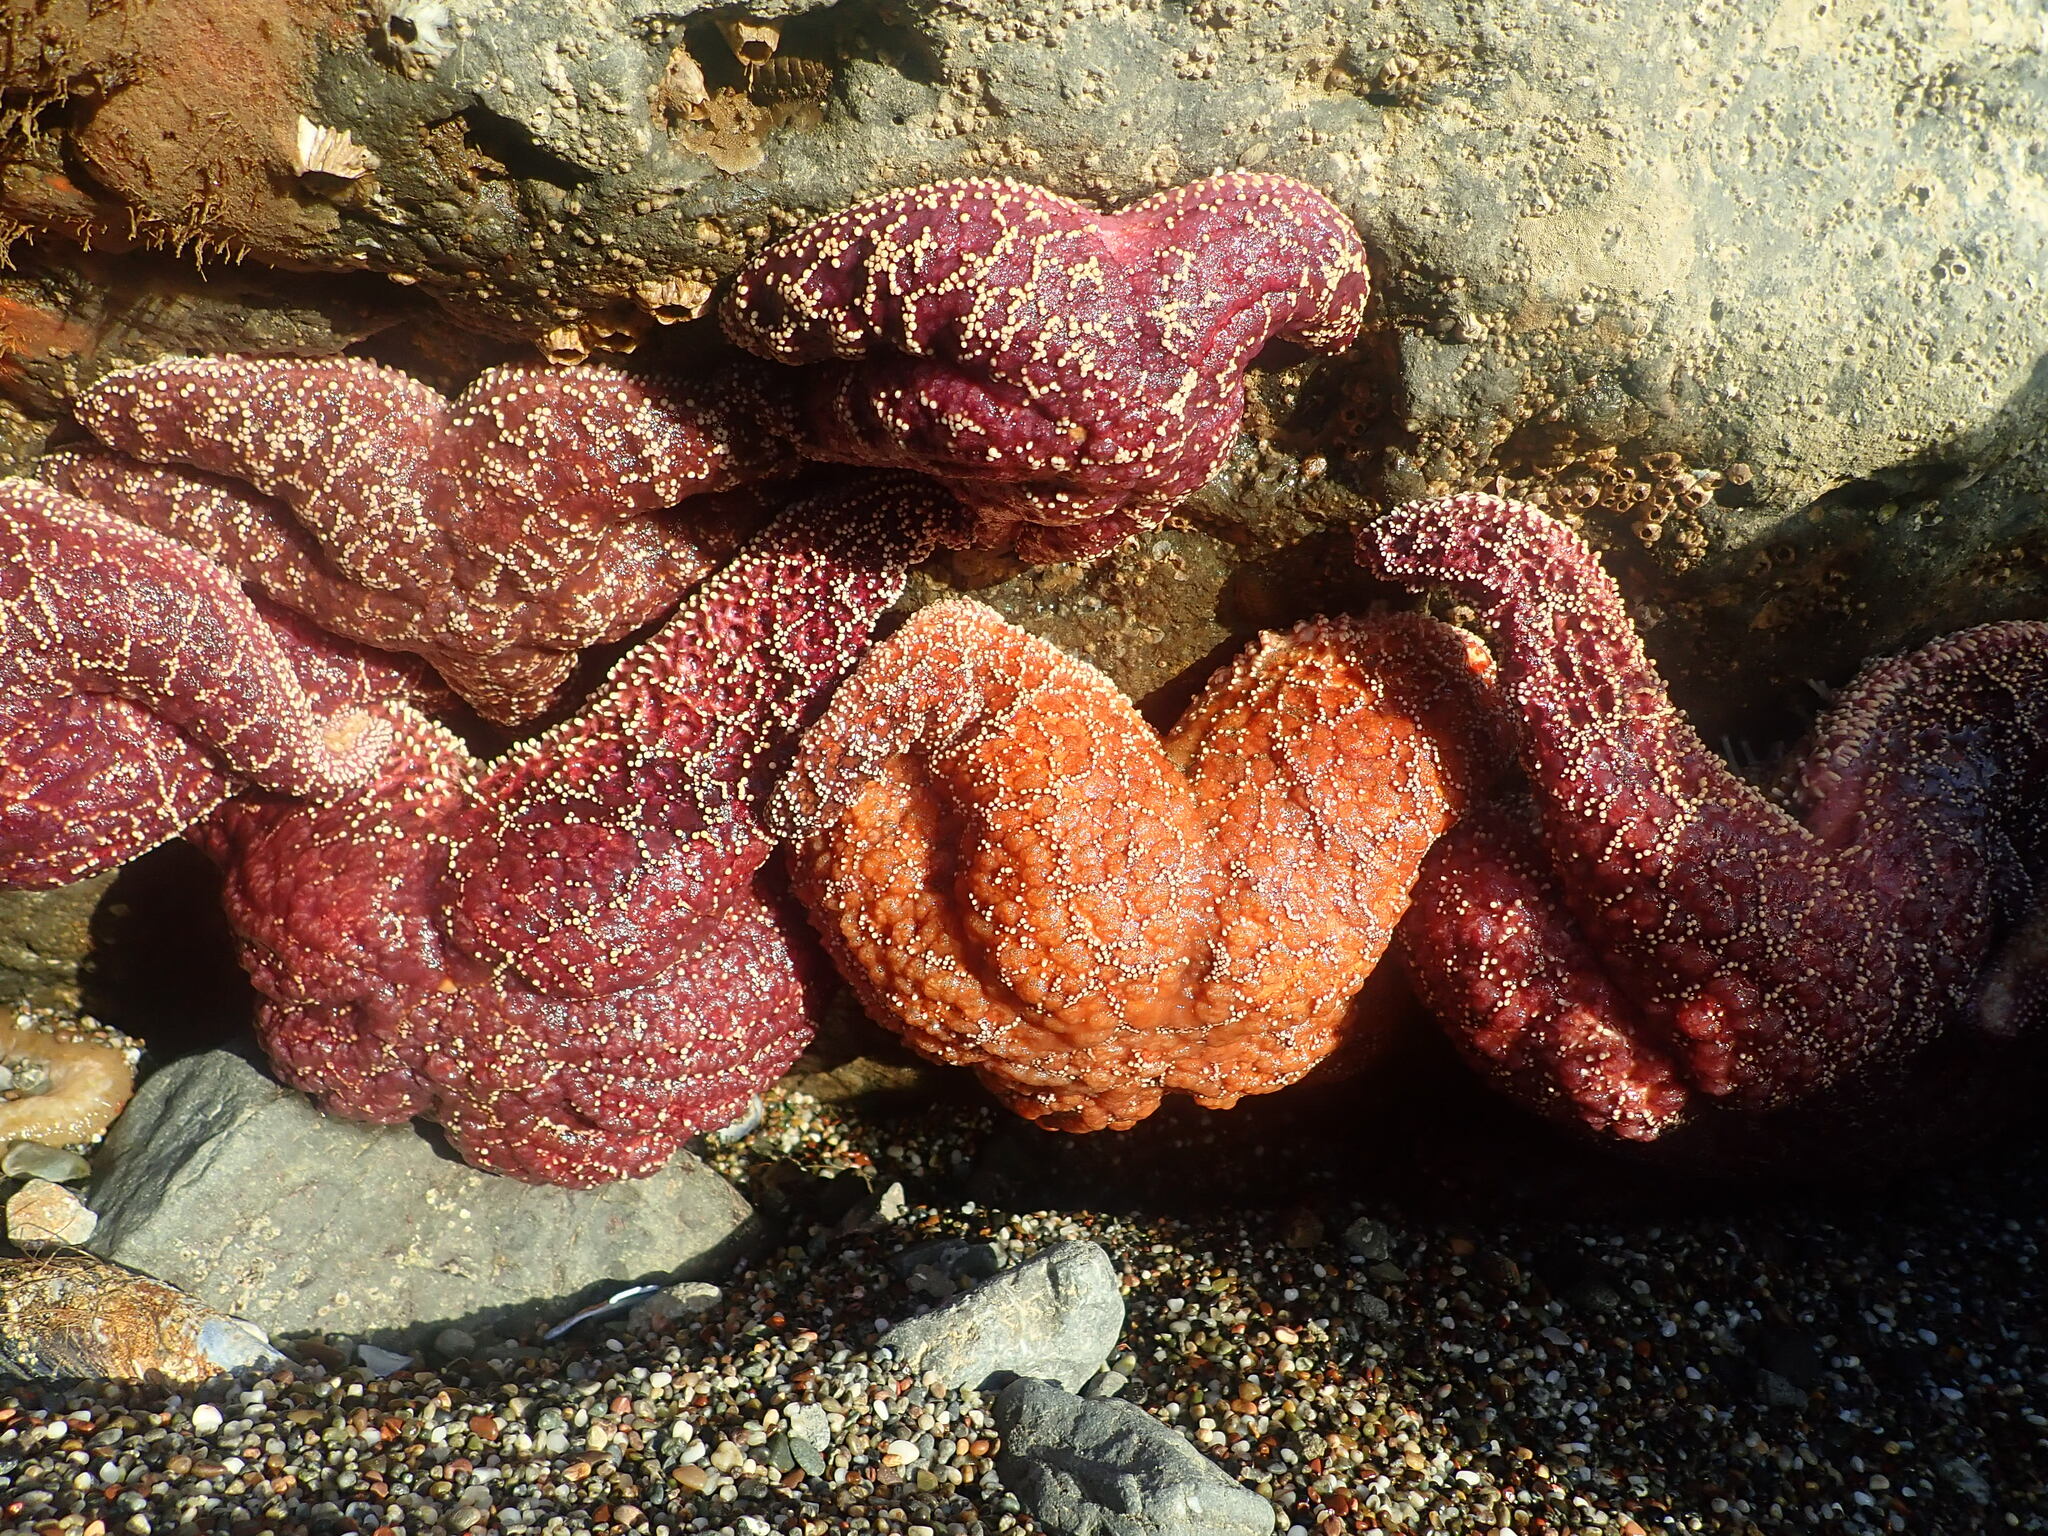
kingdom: Animalia
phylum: Echinodermata
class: Asteroidea
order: Forcipulatida
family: Asteriidae
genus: Pisaster
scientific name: Pisaster ochraceus
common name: Ochre stars
